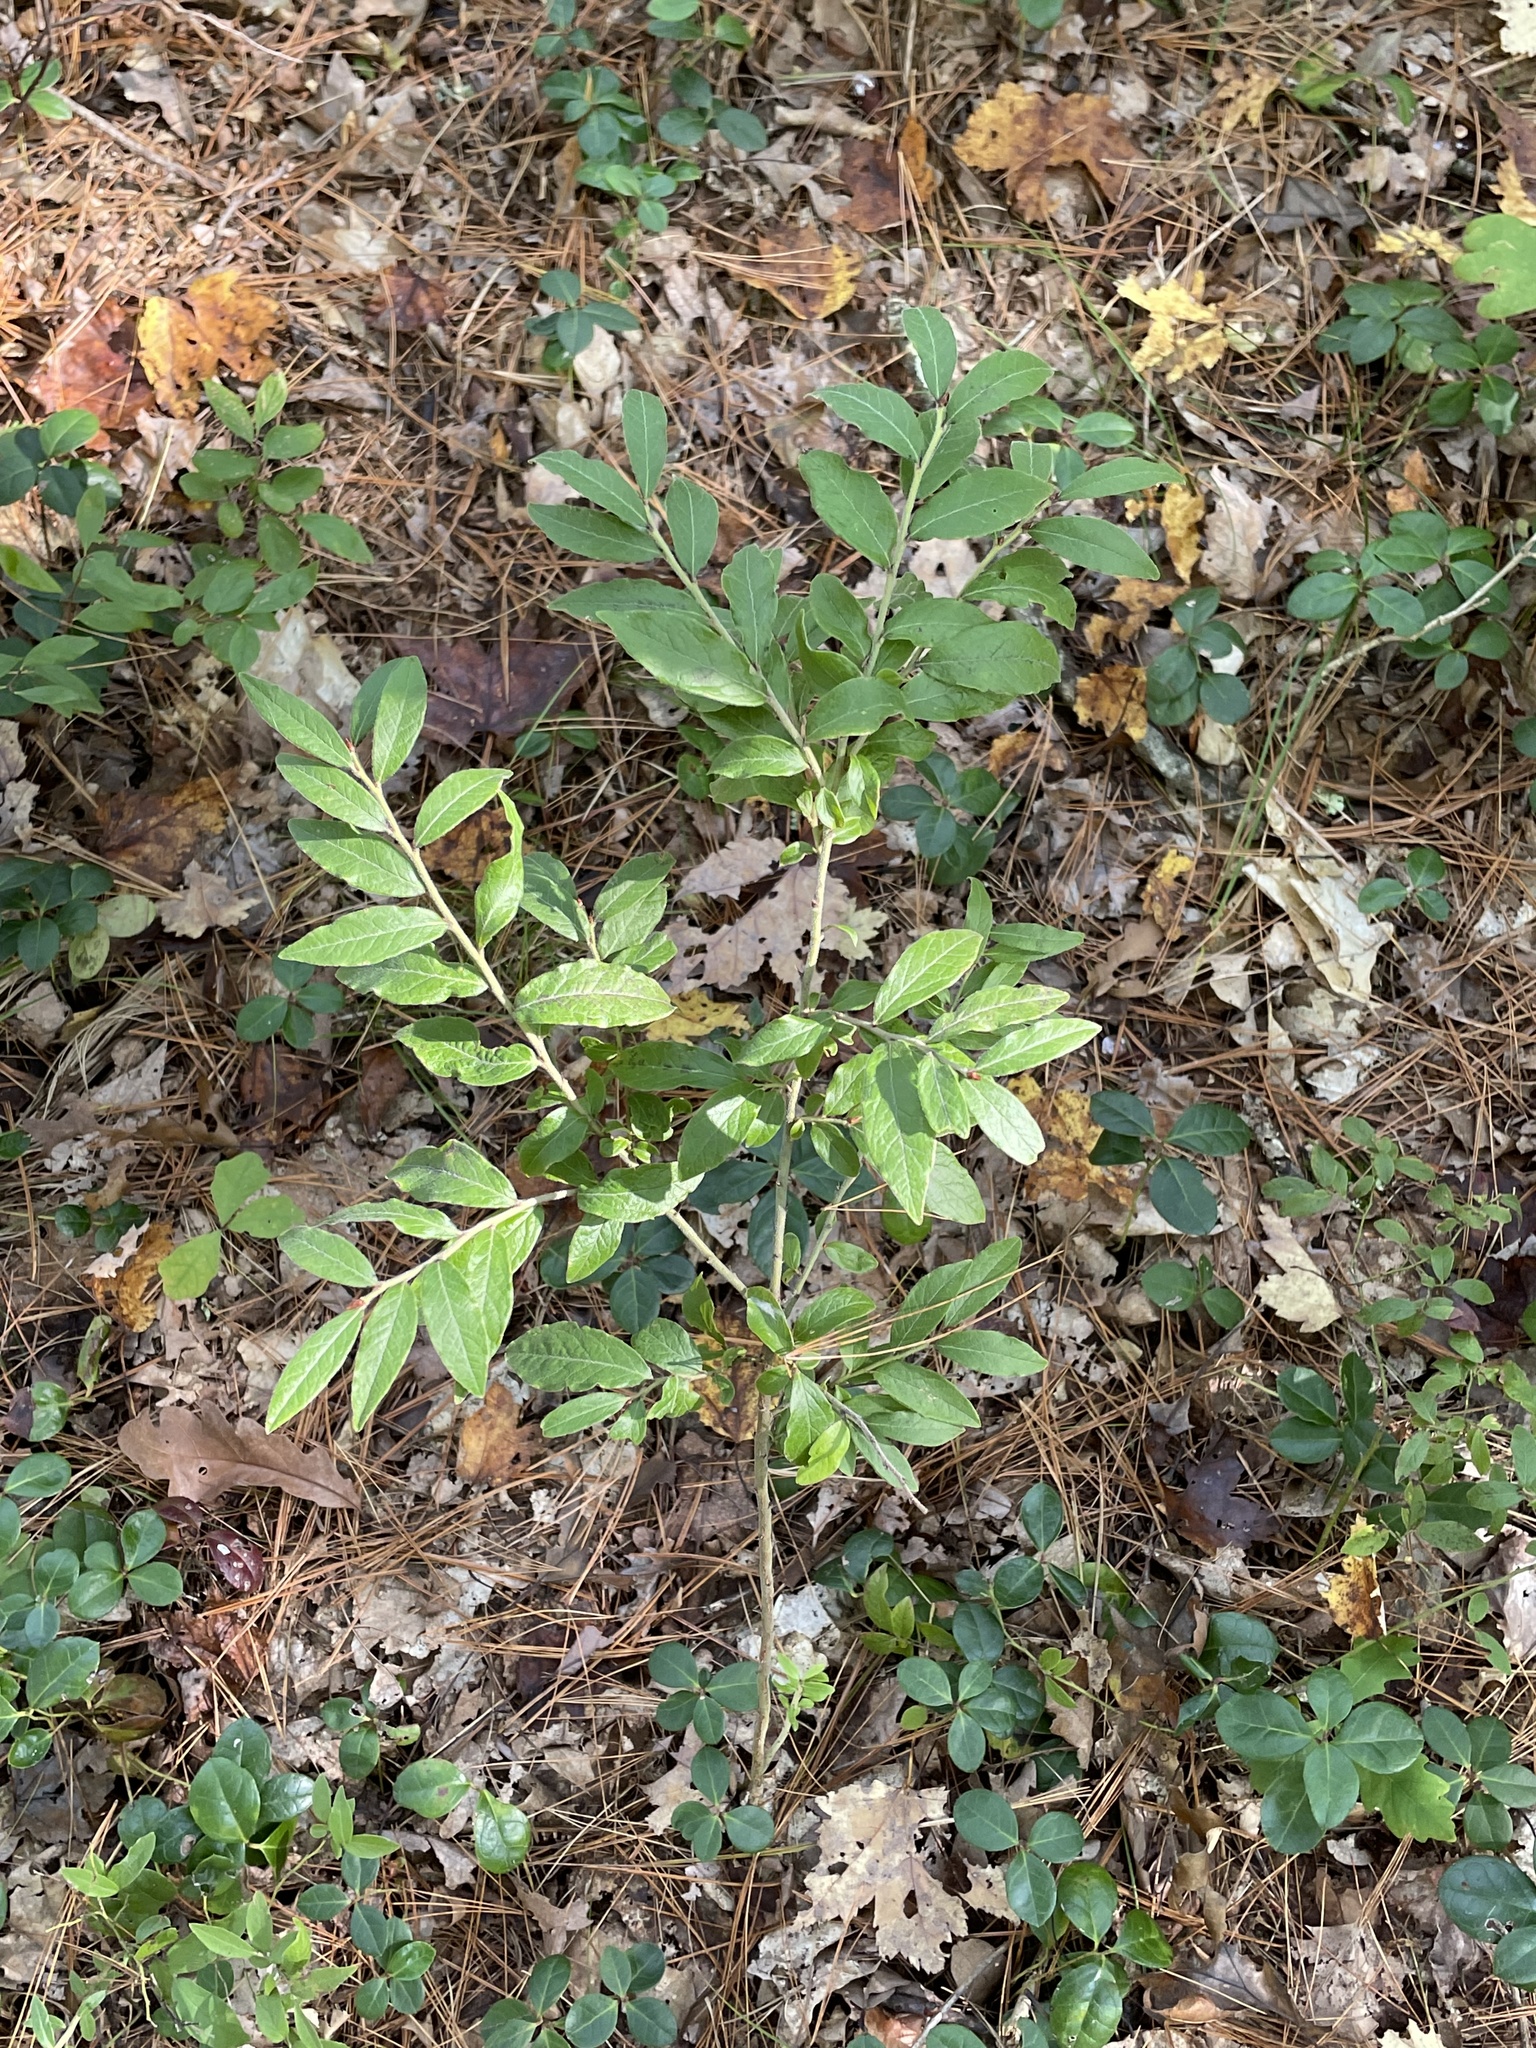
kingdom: Plantae
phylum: Tracheophyta
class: Magnoliopsida
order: Ericales
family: Ericaceae
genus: Vaccinium
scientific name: Vaccinium myrtilloides
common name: Canada blueberry
